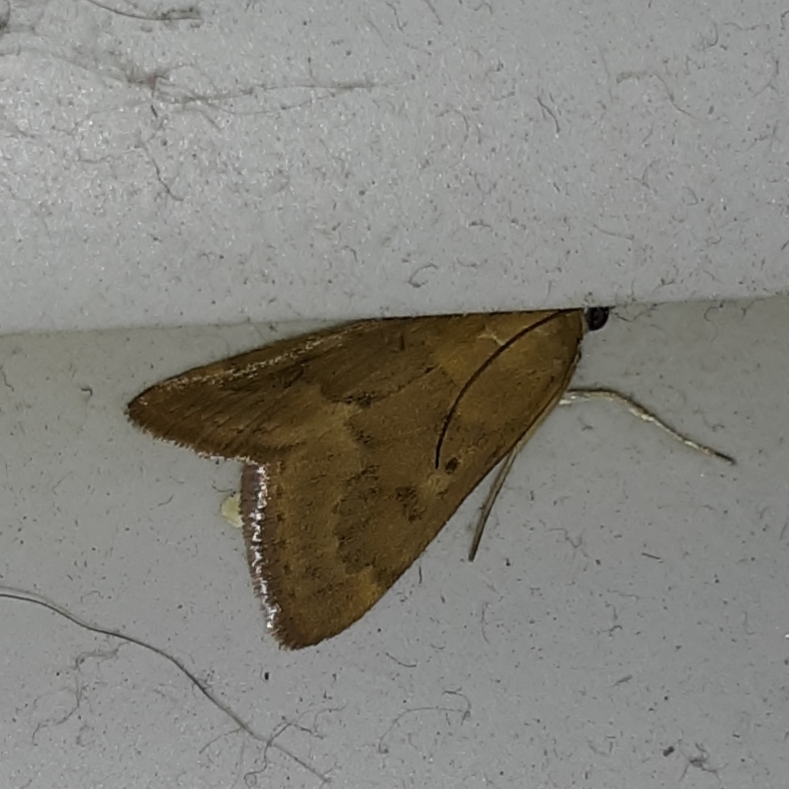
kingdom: Animalia
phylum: Arthropoda
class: Insecta
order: Lepidoptera
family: Crambidae
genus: Achyra
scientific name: Achyra rantalis
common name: Garden webworm
